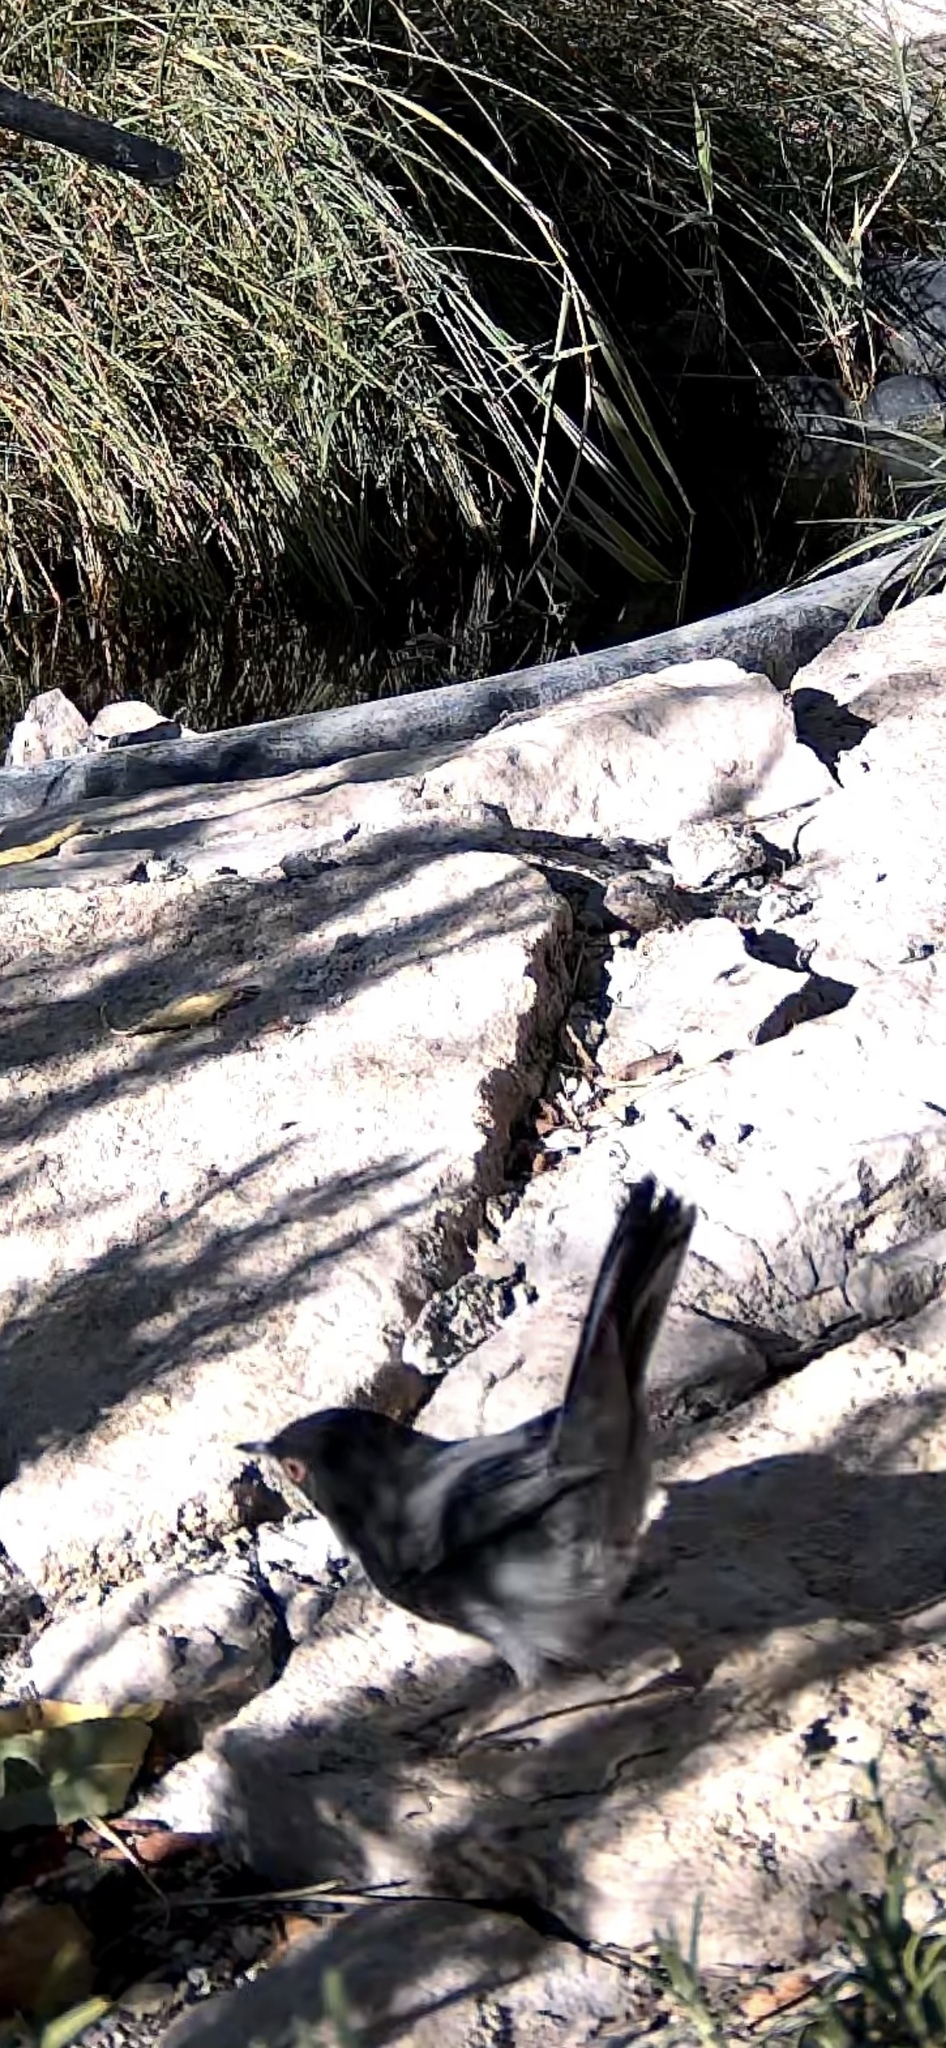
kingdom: Animalia
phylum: Chordata
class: Aves
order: Passeriformes
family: Sylviidae
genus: Curruca
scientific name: Curruca melanocephala
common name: Sardinian warbler
